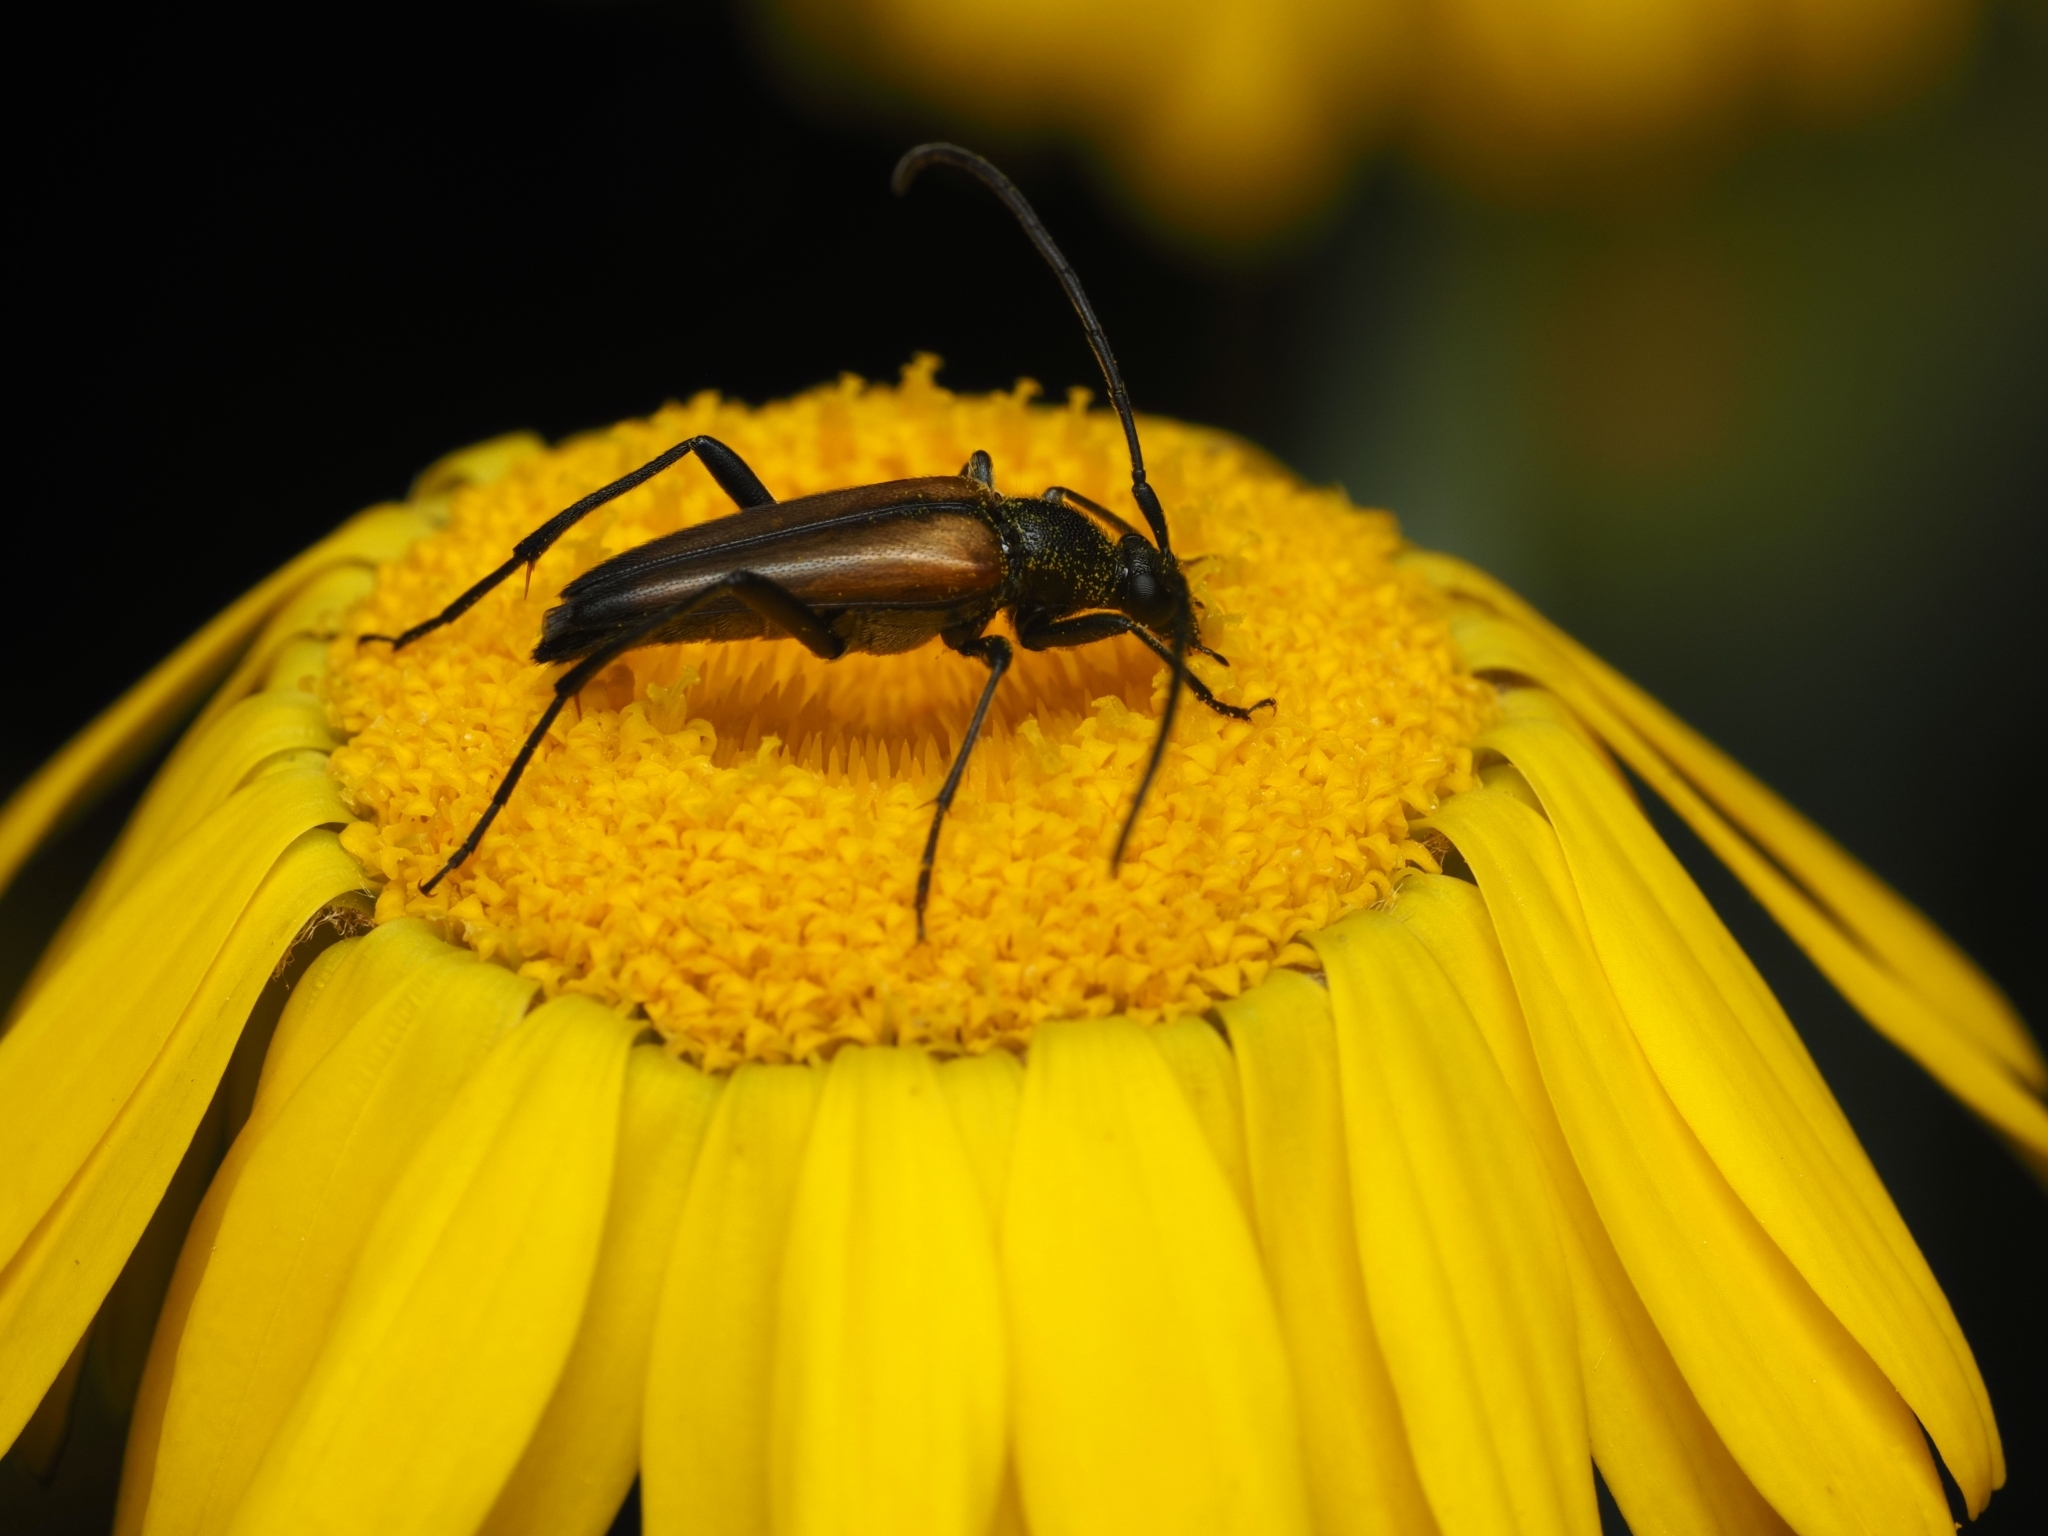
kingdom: Animalia
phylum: Arthropoda
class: Insecta
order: Coleoptera
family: Cerambycidae
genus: Stenurella
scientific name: Stenurella melanura
